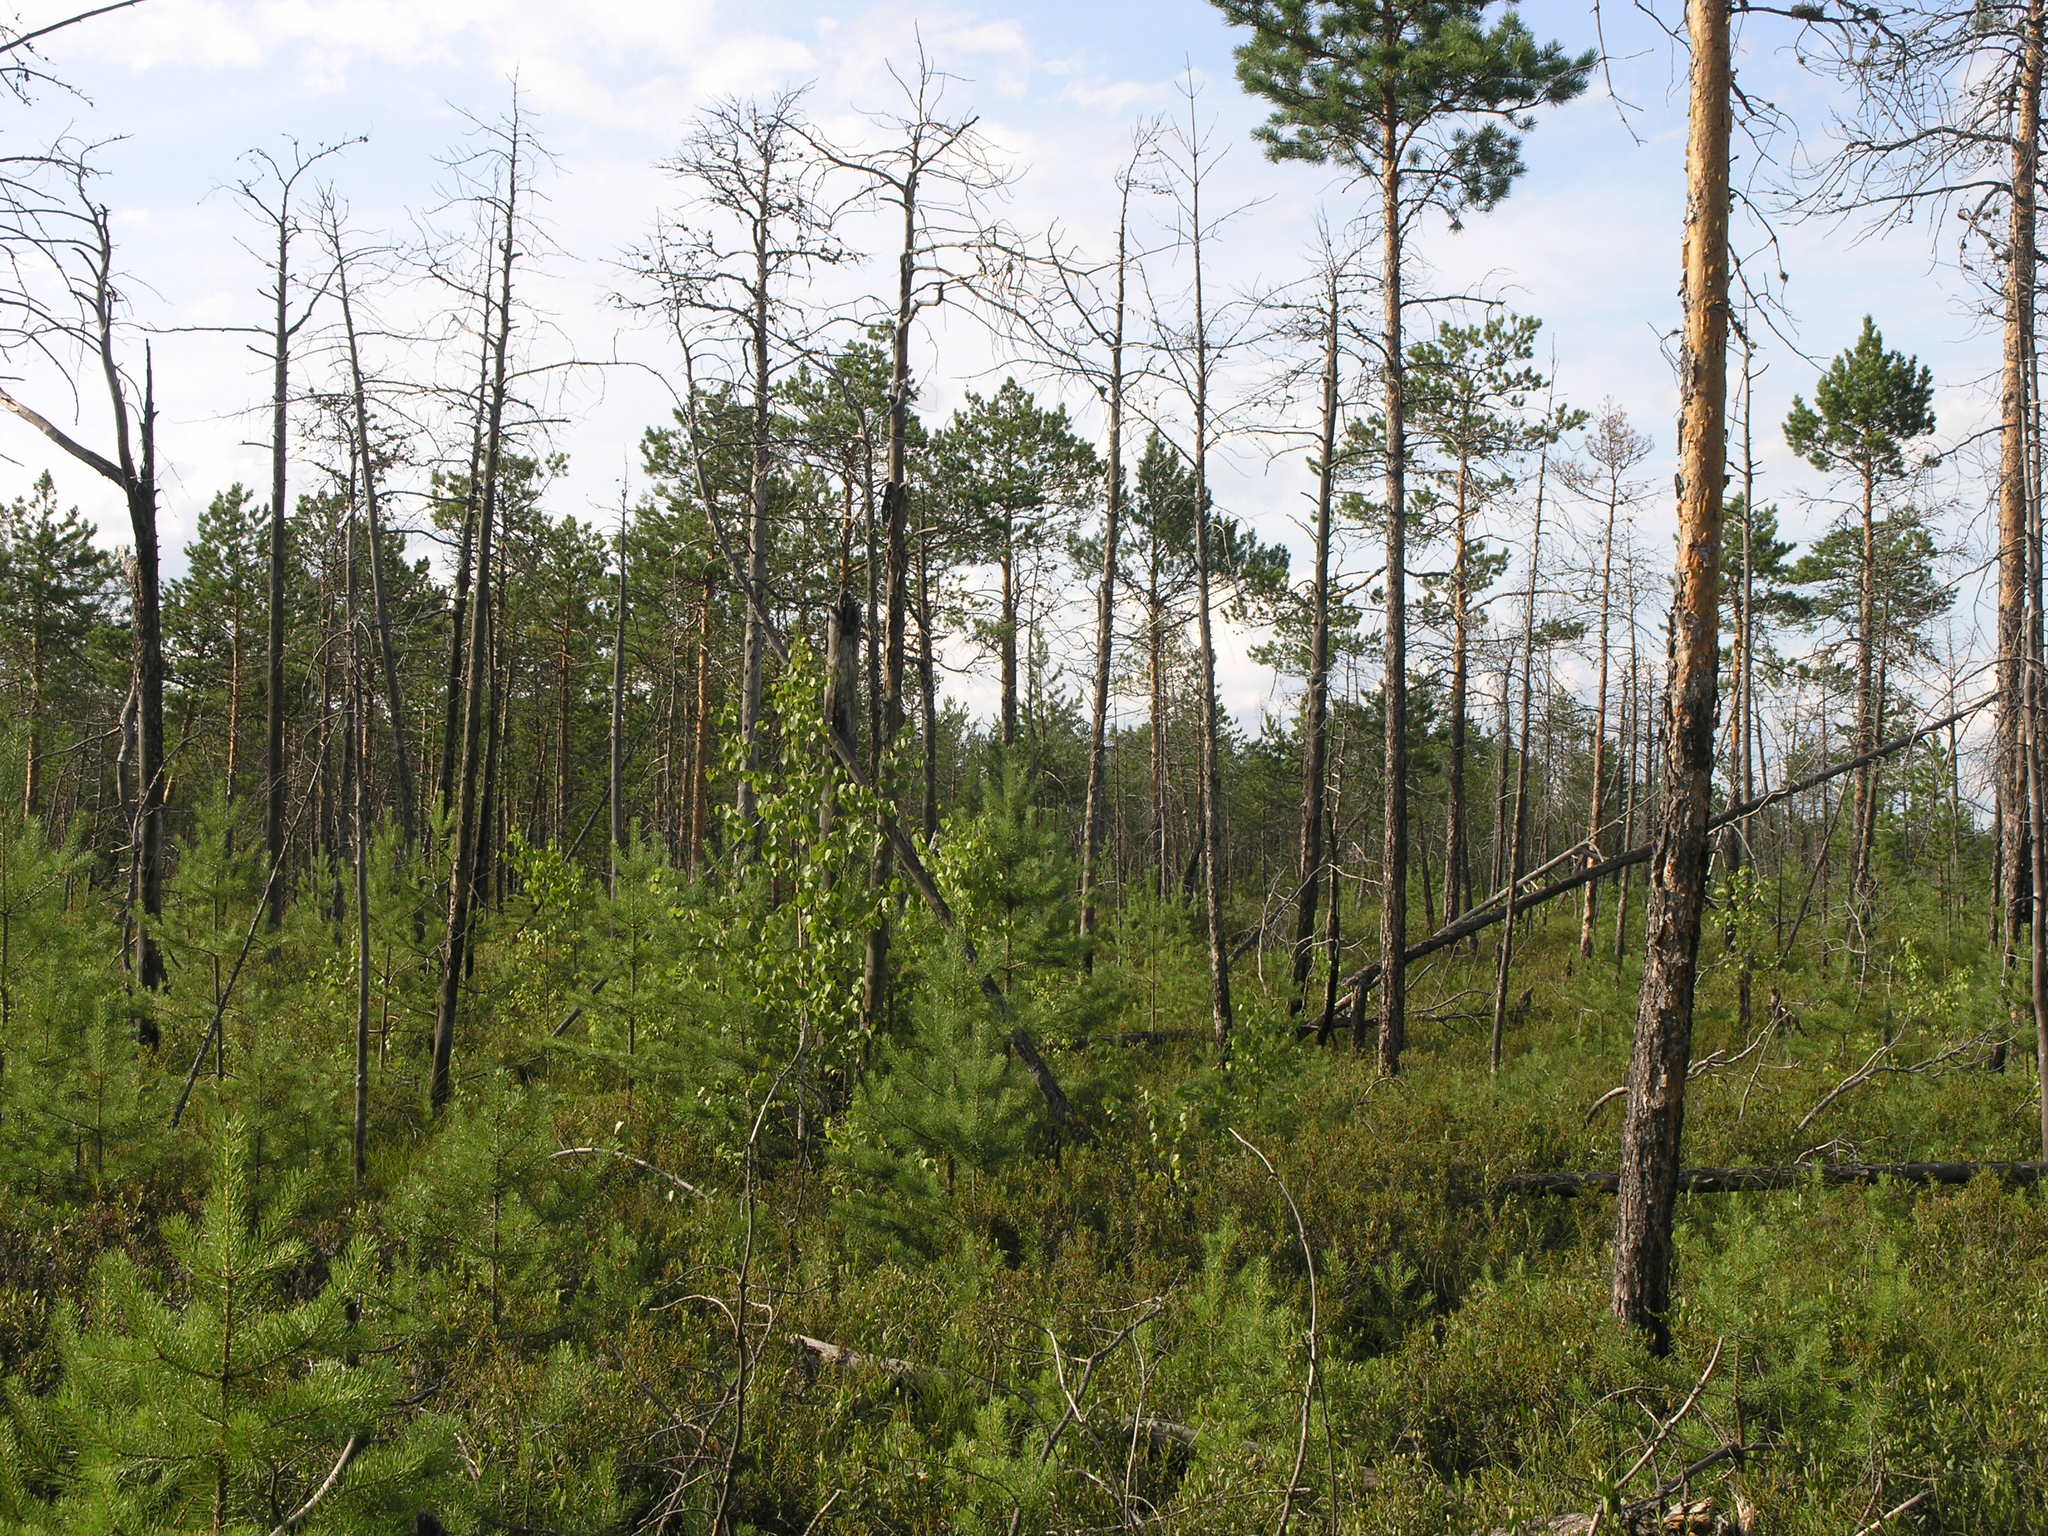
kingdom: Plantae
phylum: Tracheophyta
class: Magnoliopsida
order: Ericales
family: Ericaceae
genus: Rhododendron
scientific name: Rhododendron tomentosum
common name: Marsh labrador tea
